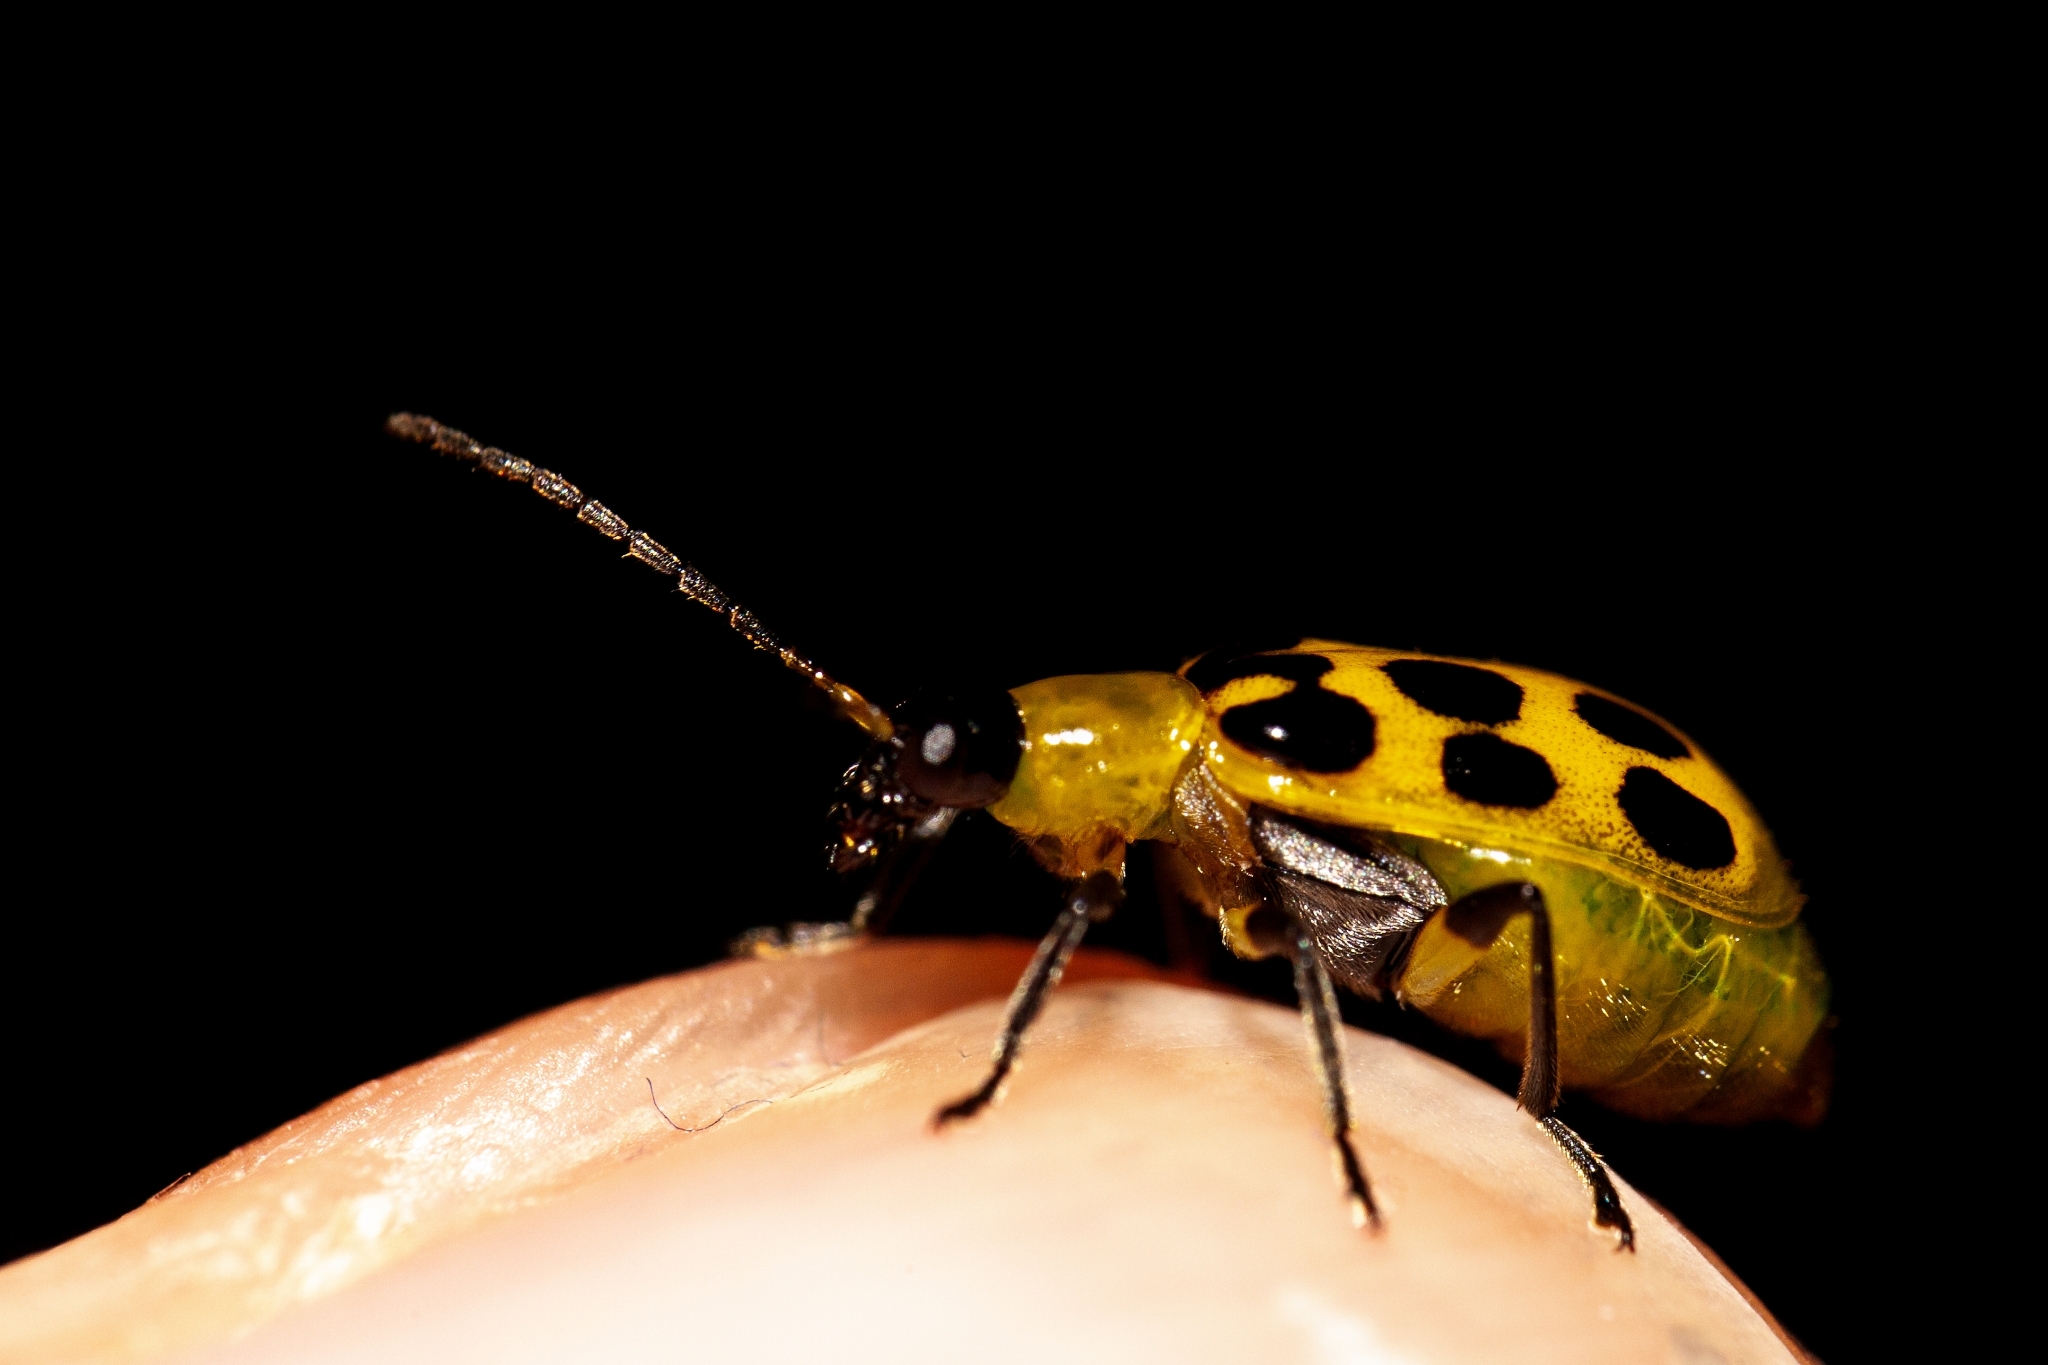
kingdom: Animalia
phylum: Arthropoda
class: Insecta
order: Coleoptera
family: Chrysomelidae
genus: Diabrotica
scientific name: Diabrotica undecimpunctata
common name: Spotted cucumber beetle
